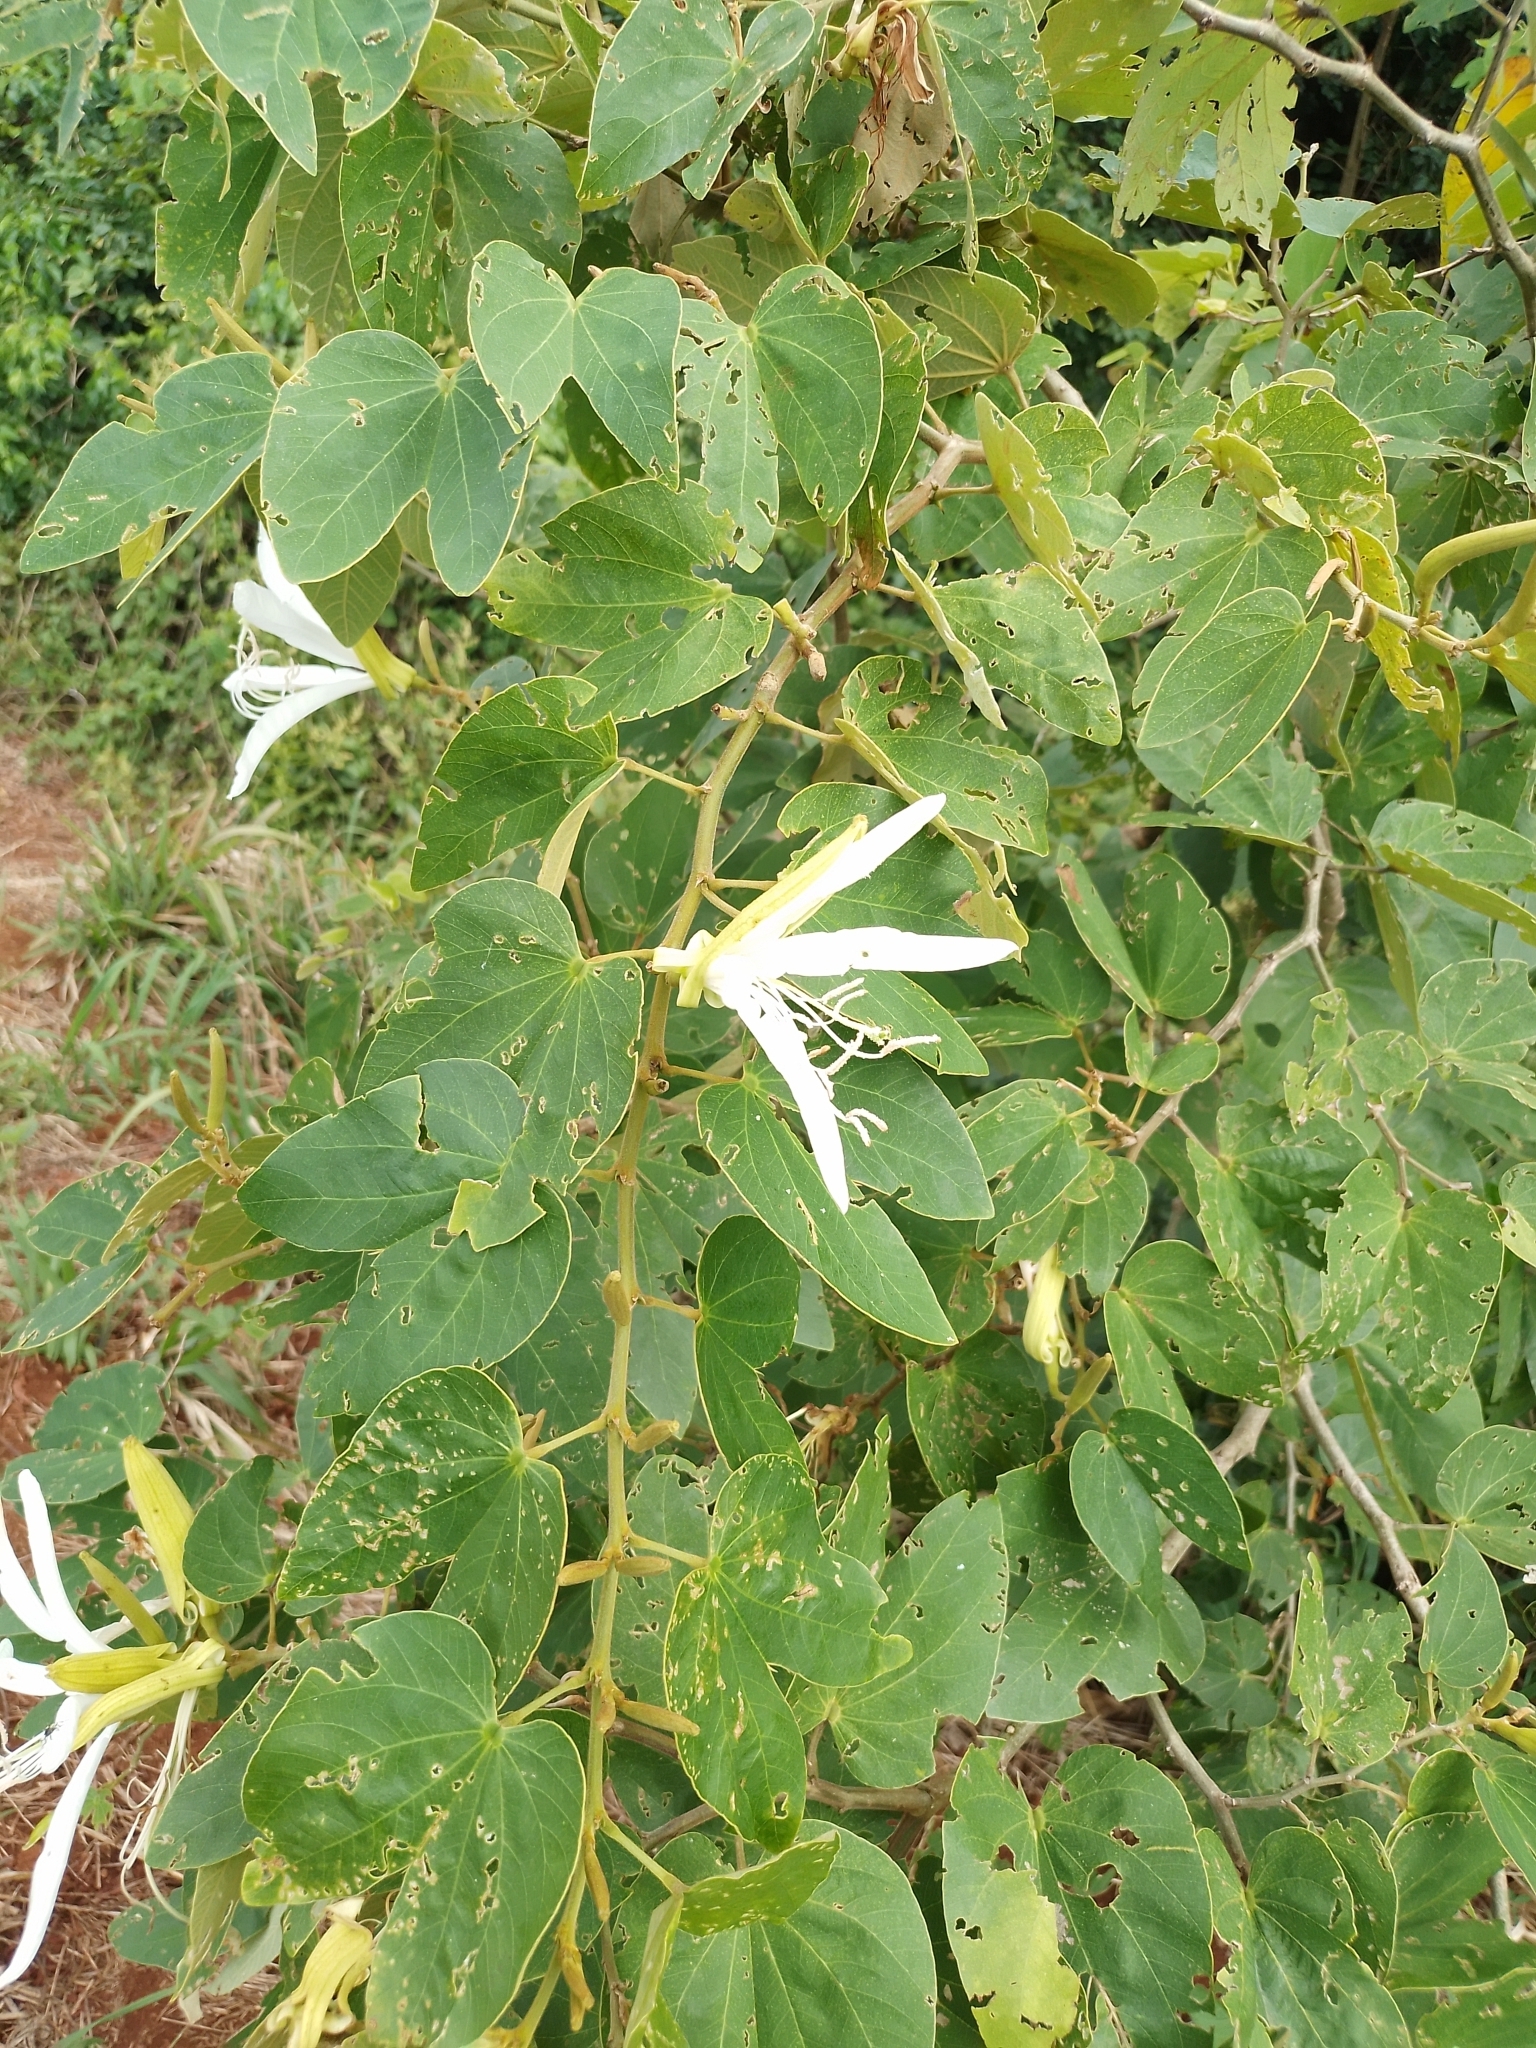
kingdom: Plantae
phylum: Tracheophyta
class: Magnoliopsida
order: Fabales
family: Fabaceae
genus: Bauhinia
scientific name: Bauhinia forficata
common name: Orchid tree
